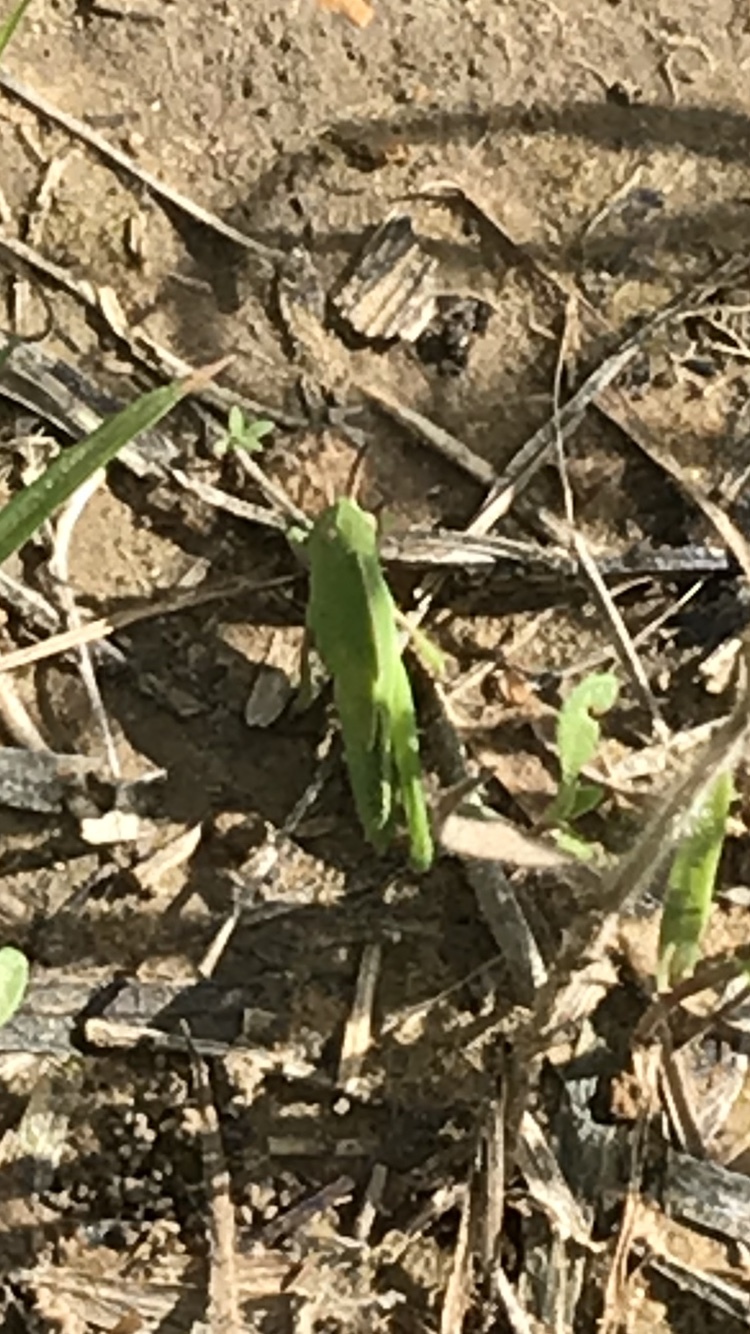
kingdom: Animalia
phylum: Arthropoda
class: Insecta
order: Orthoptera
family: Acrididae
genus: Chortophaga
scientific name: Chortophaga viridifasciata
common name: Green-striped grasshopper
